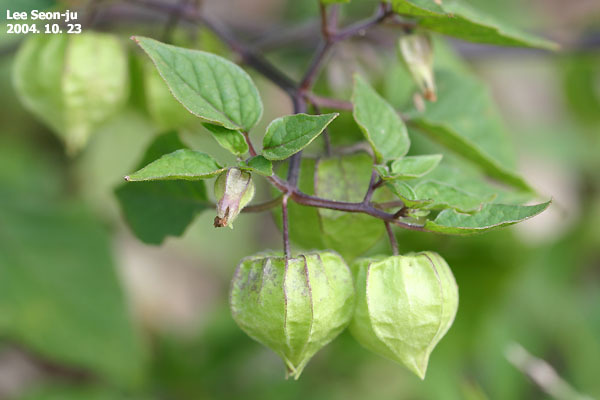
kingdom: Plantae
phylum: Tracheophyta
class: Magnoliopsida
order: Solanales
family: Solanaceae
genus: Physalis
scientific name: Physalis angulata
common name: Angular winter-cherry
